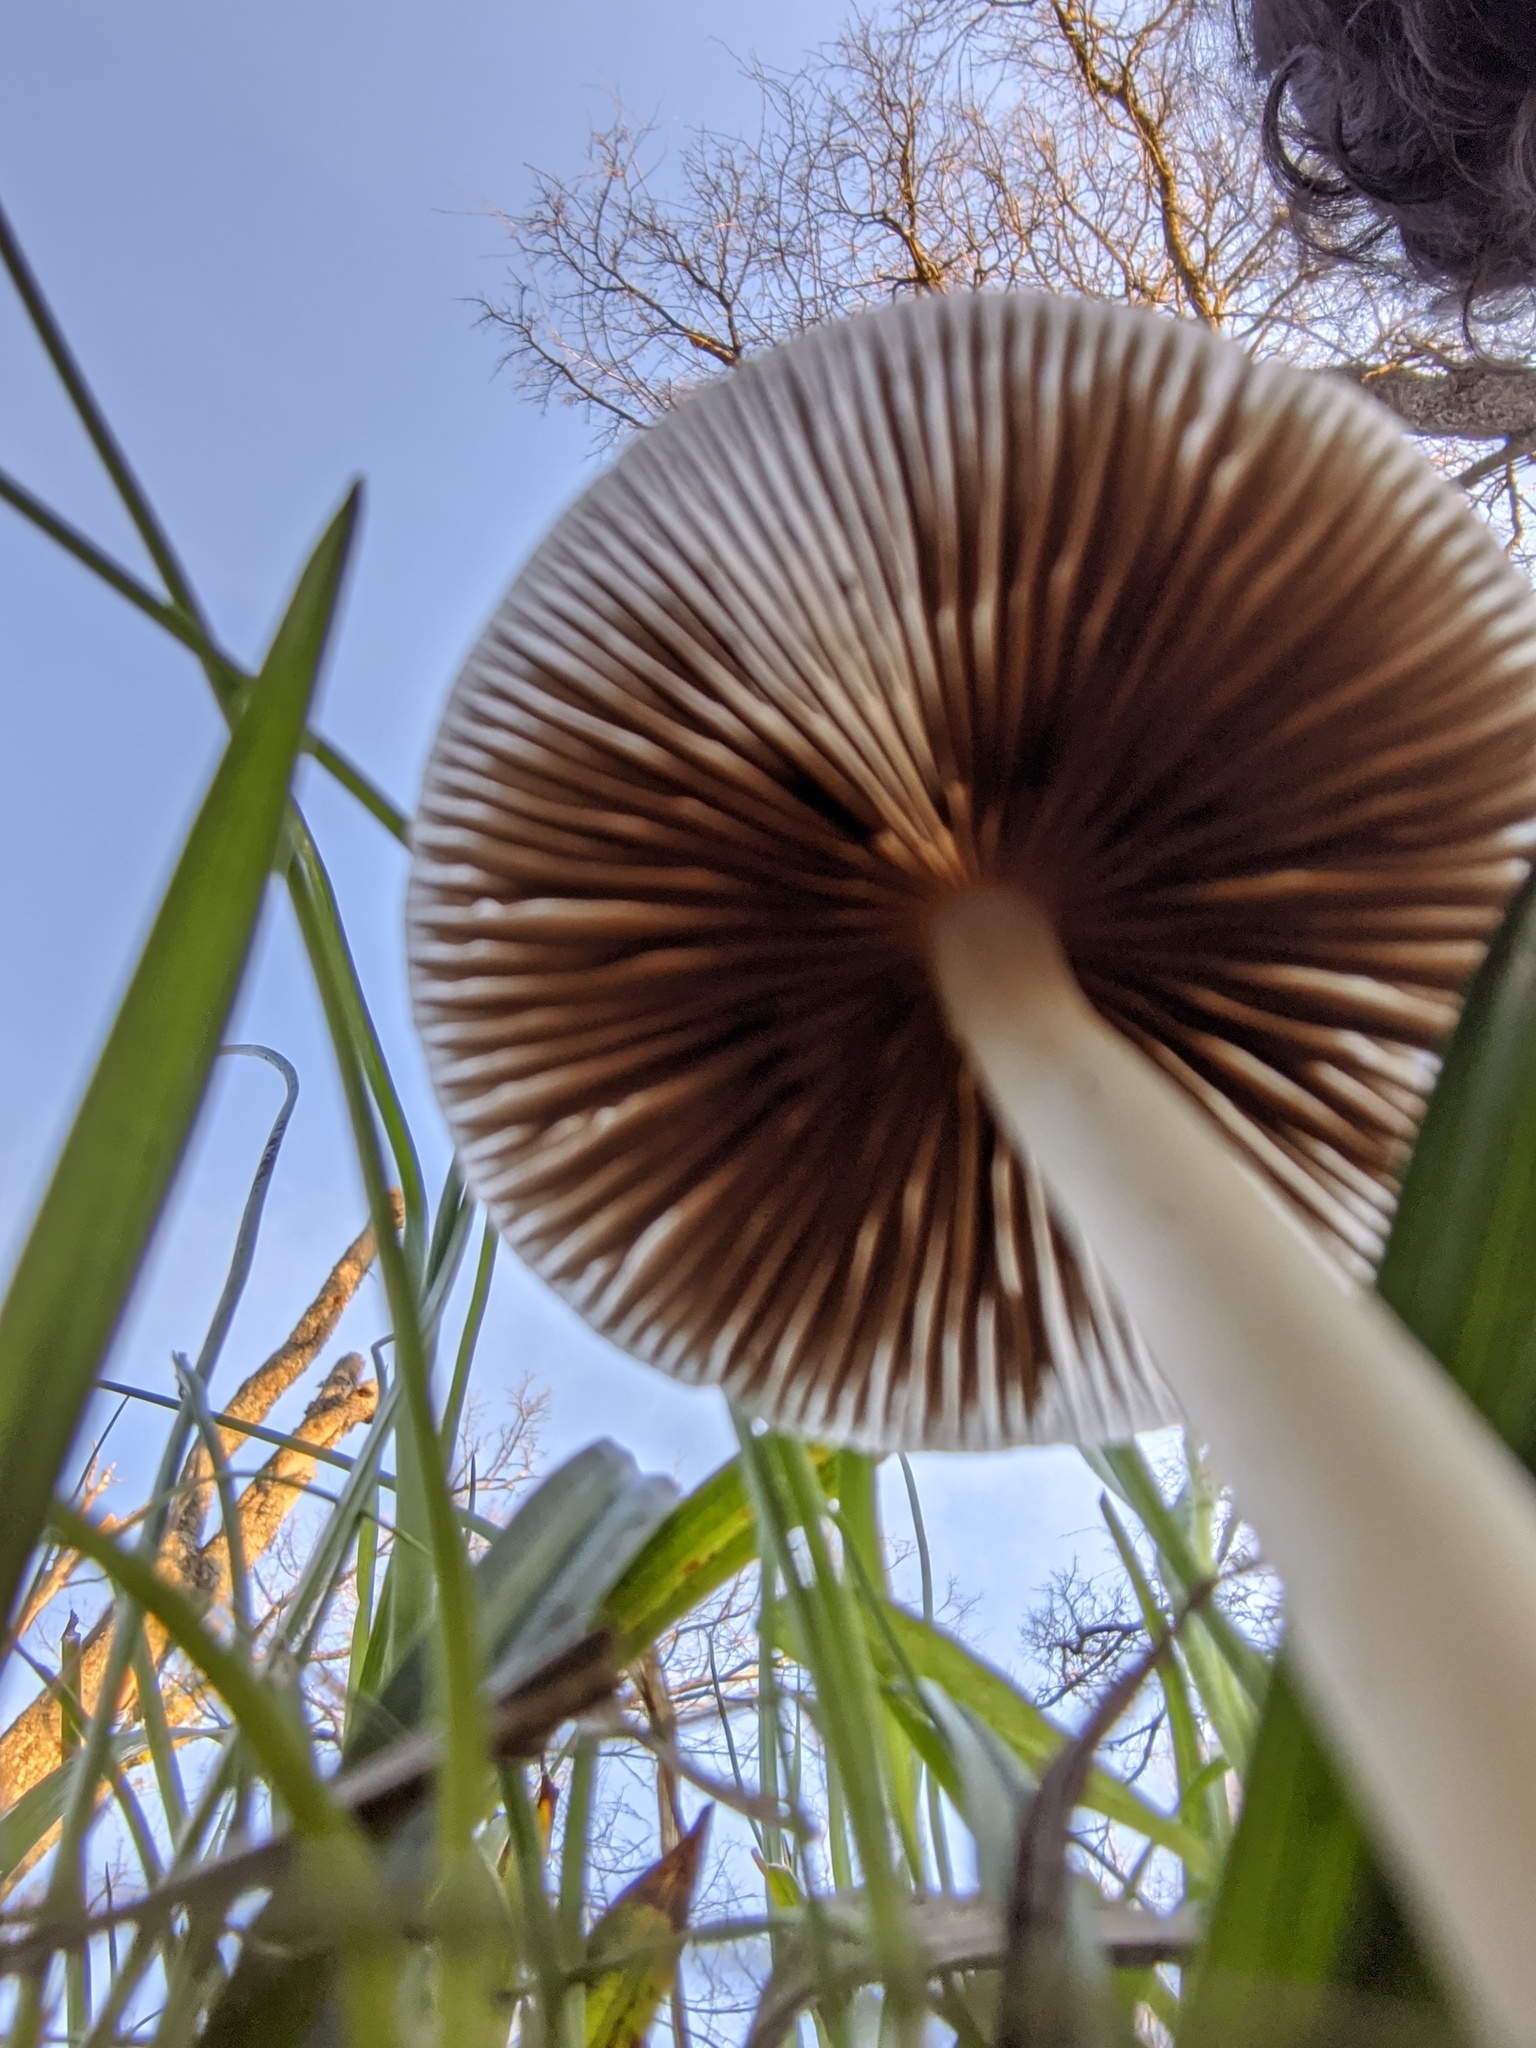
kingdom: Fungi
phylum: Basidiomycota
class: Agaricomycetes
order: Agaricales
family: Psathyrellaceae
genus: Parasola
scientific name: Parasola plicatilis
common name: Pleated inkcap
